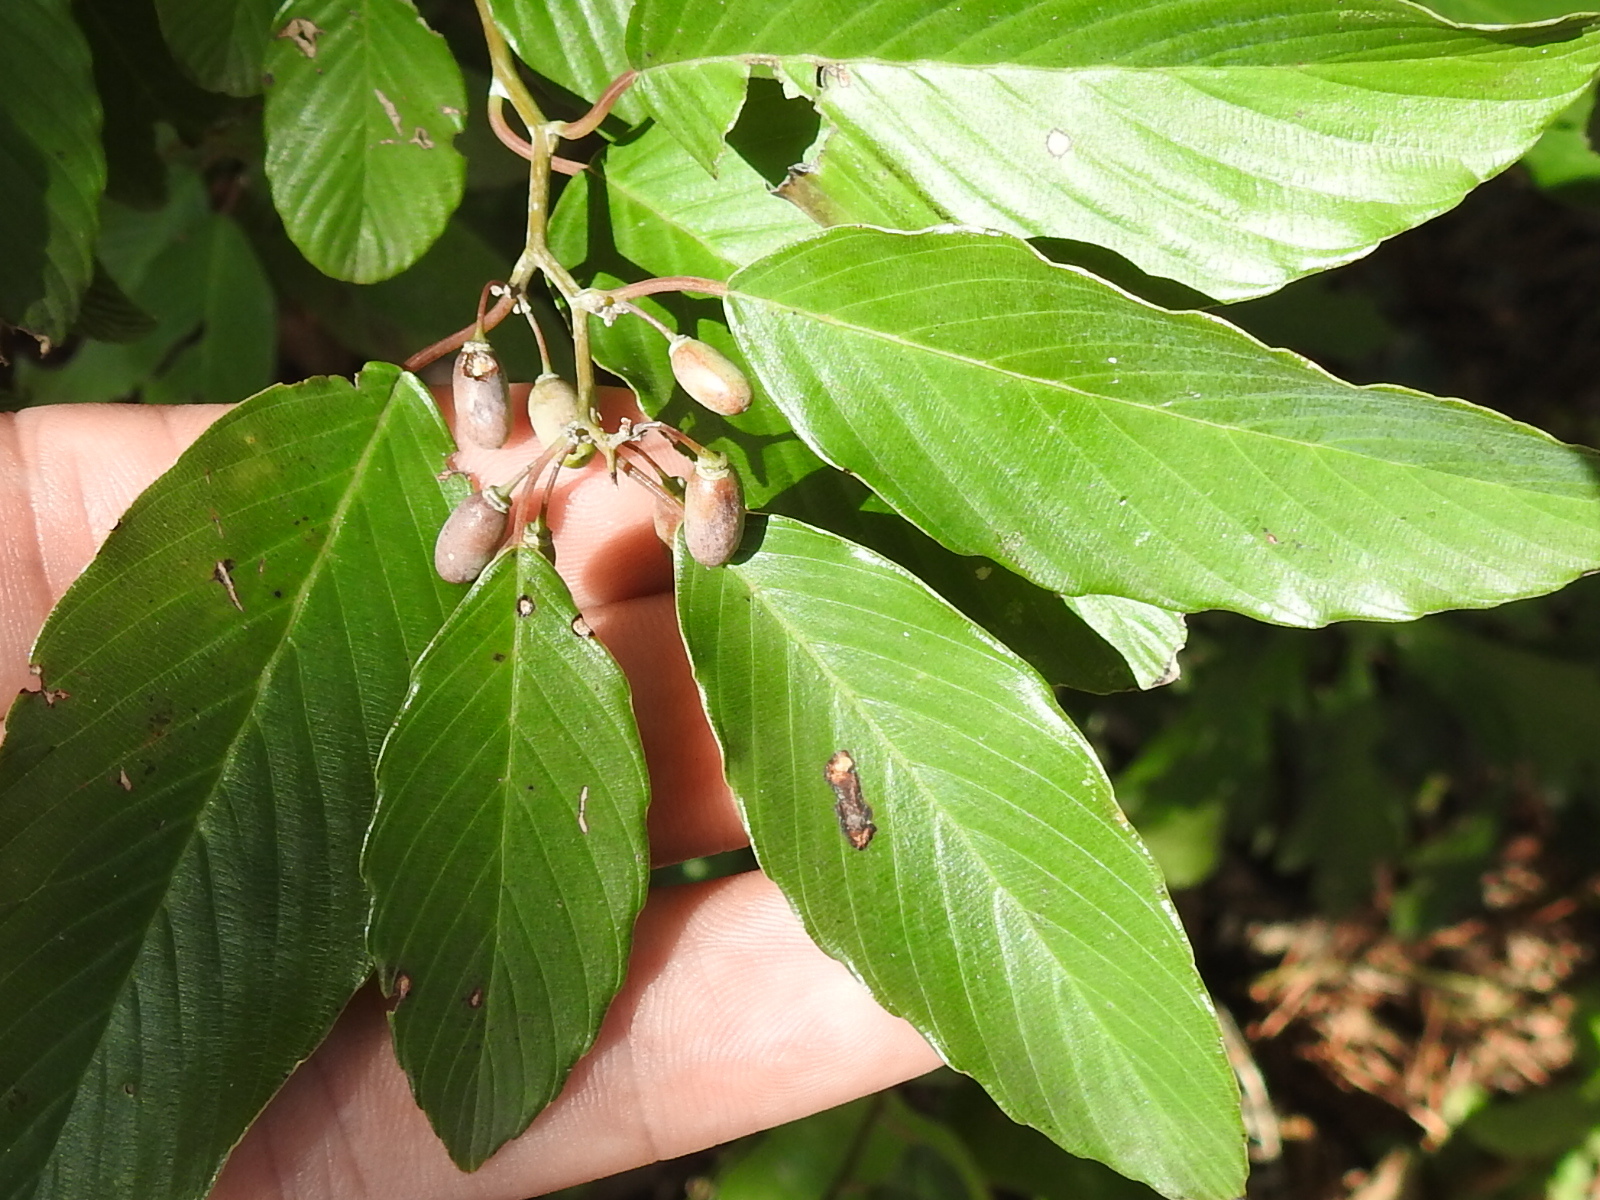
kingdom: Plantae
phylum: Tracheophyta
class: Magnoliopsida
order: Rosales
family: Rhamnaceae
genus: Frangula
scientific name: Frangula caroliniana
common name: Carolina buckthorn
